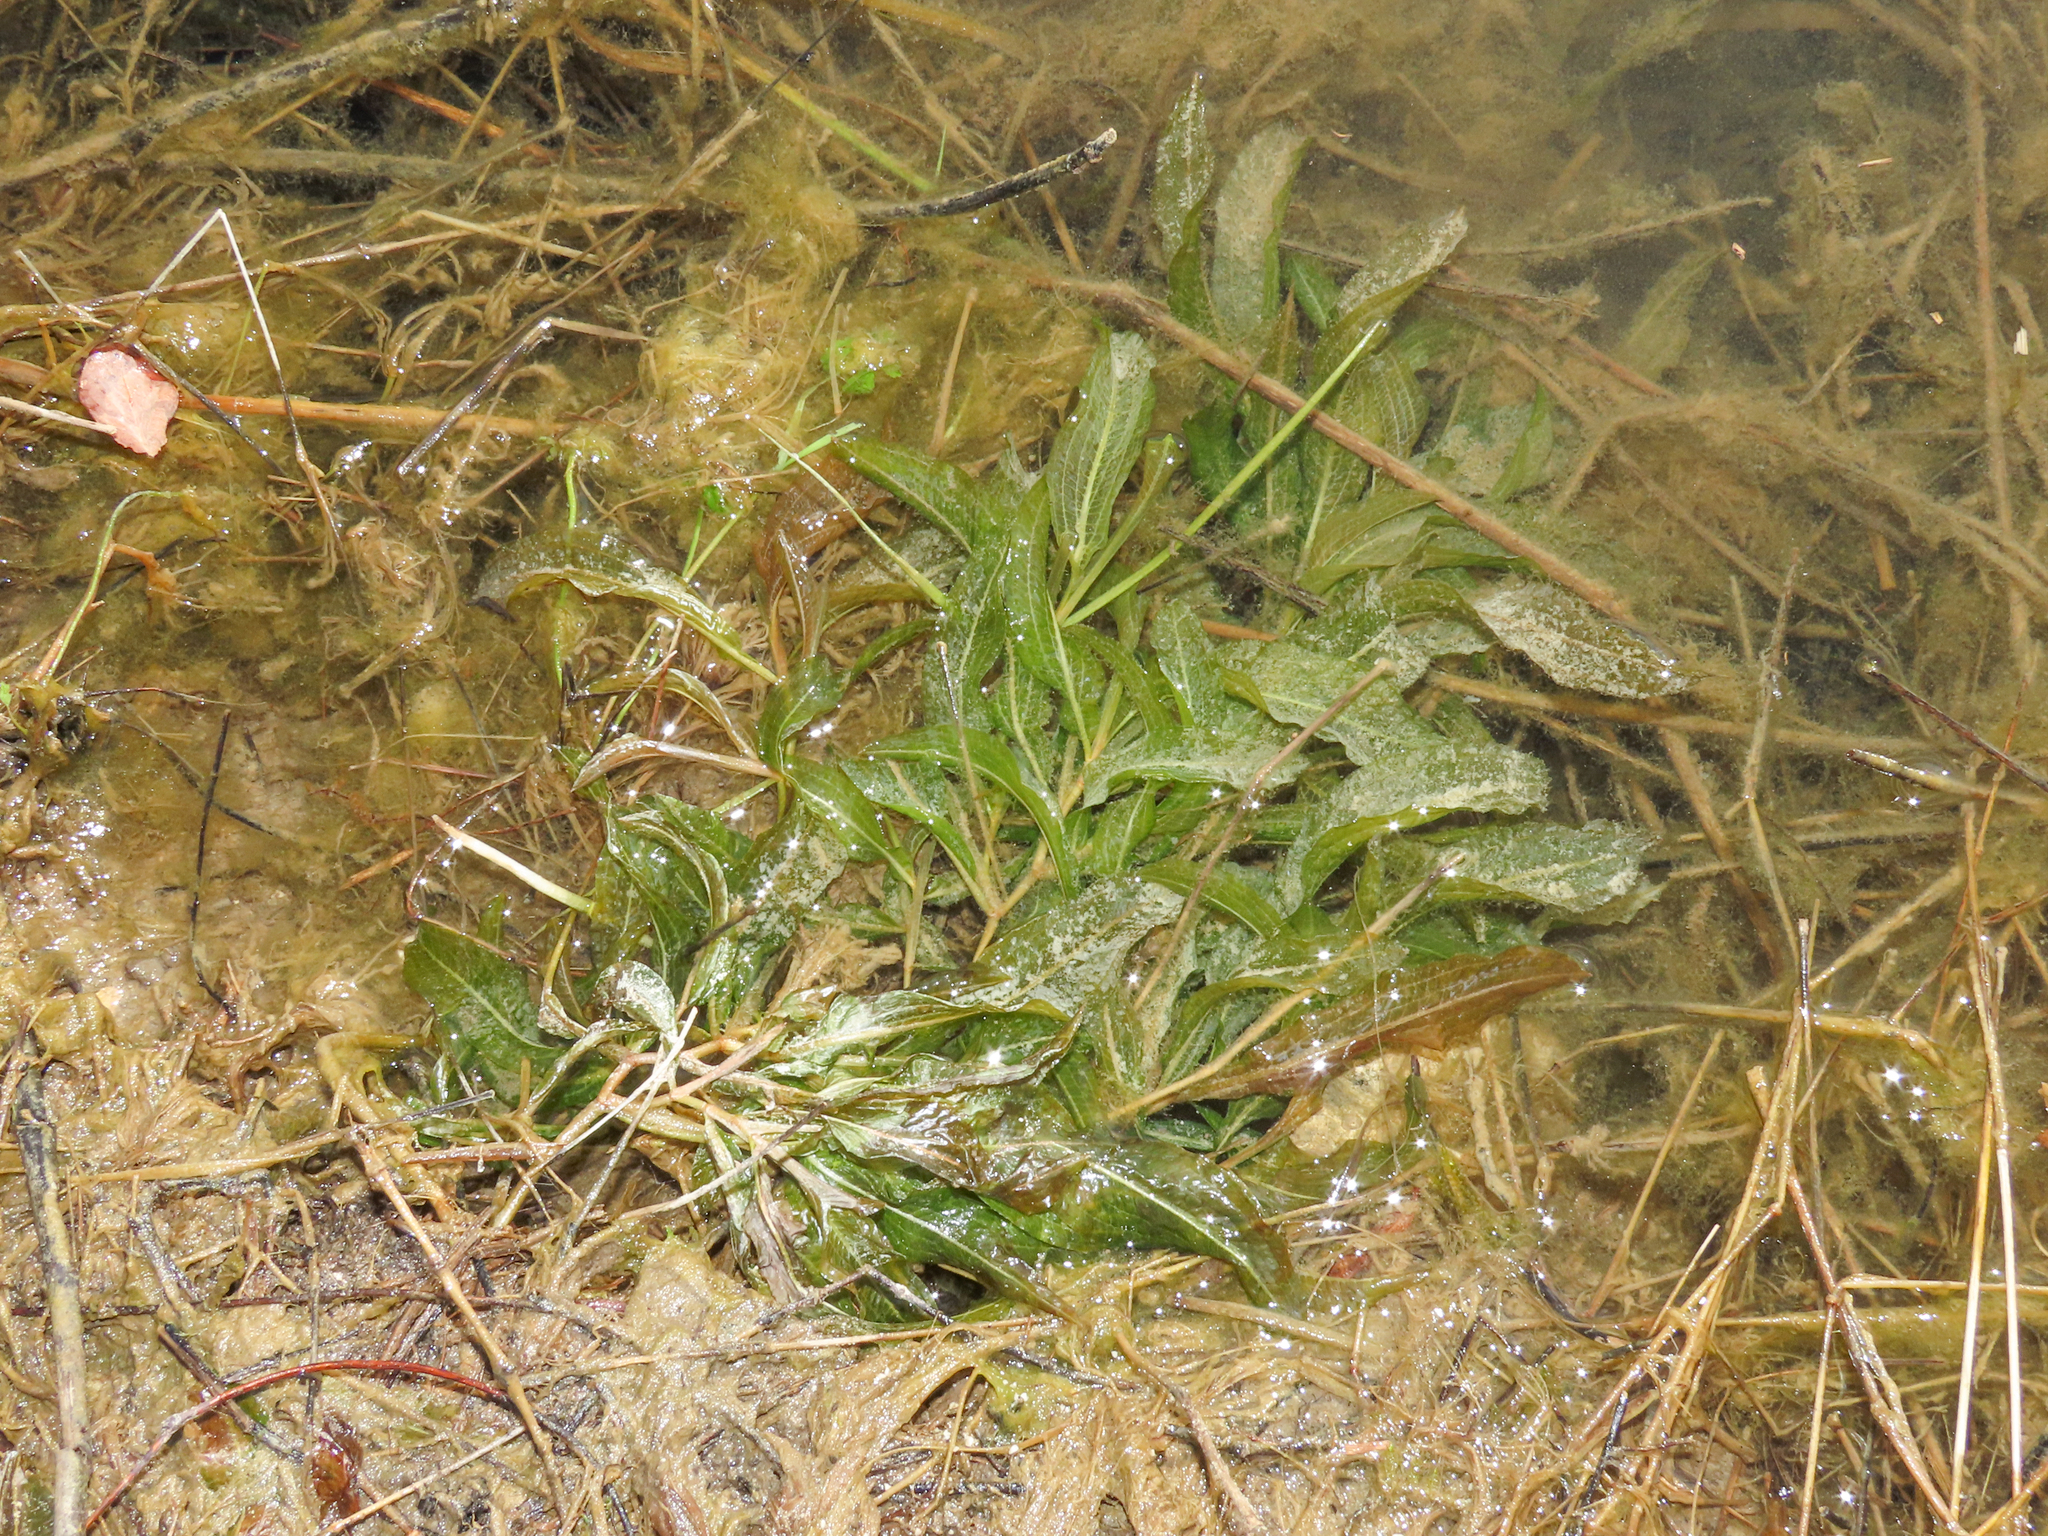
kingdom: Plantae
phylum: Tracheophyta
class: Liliopsida
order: Alismatales
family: Potamogetonaceae
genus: Potamogeton
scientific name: Potamogeton lucens
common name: Shining pondweed
